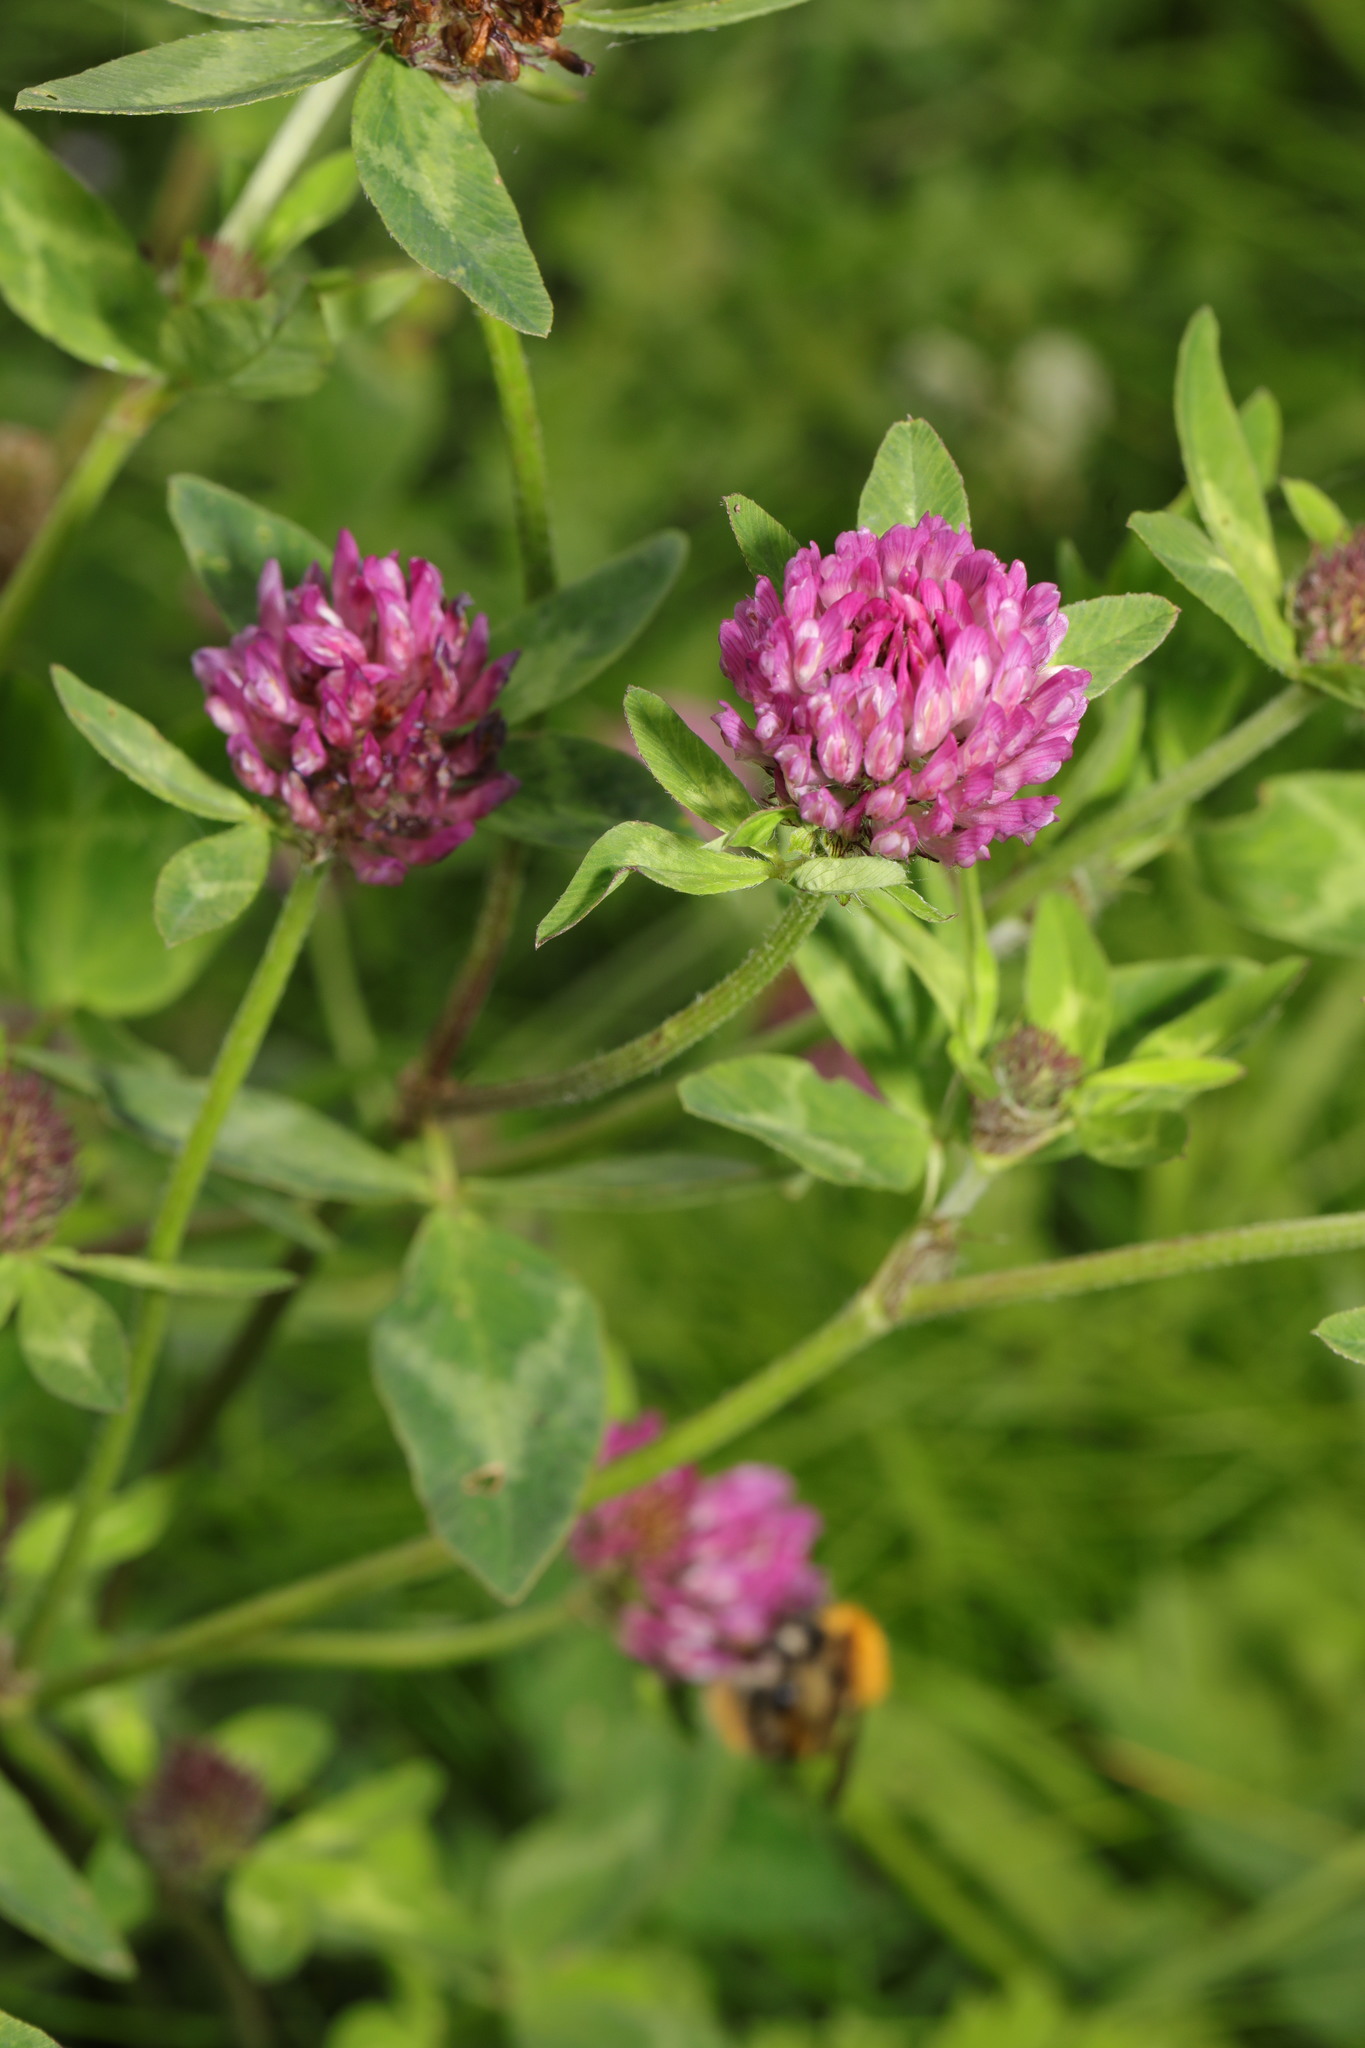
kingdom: Plantae
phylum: Tracheophyta
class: Magnoliopsida
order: Fabales
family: Fabaceae
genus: Trifolium
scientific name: Trifolium pratense
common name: Red clover
